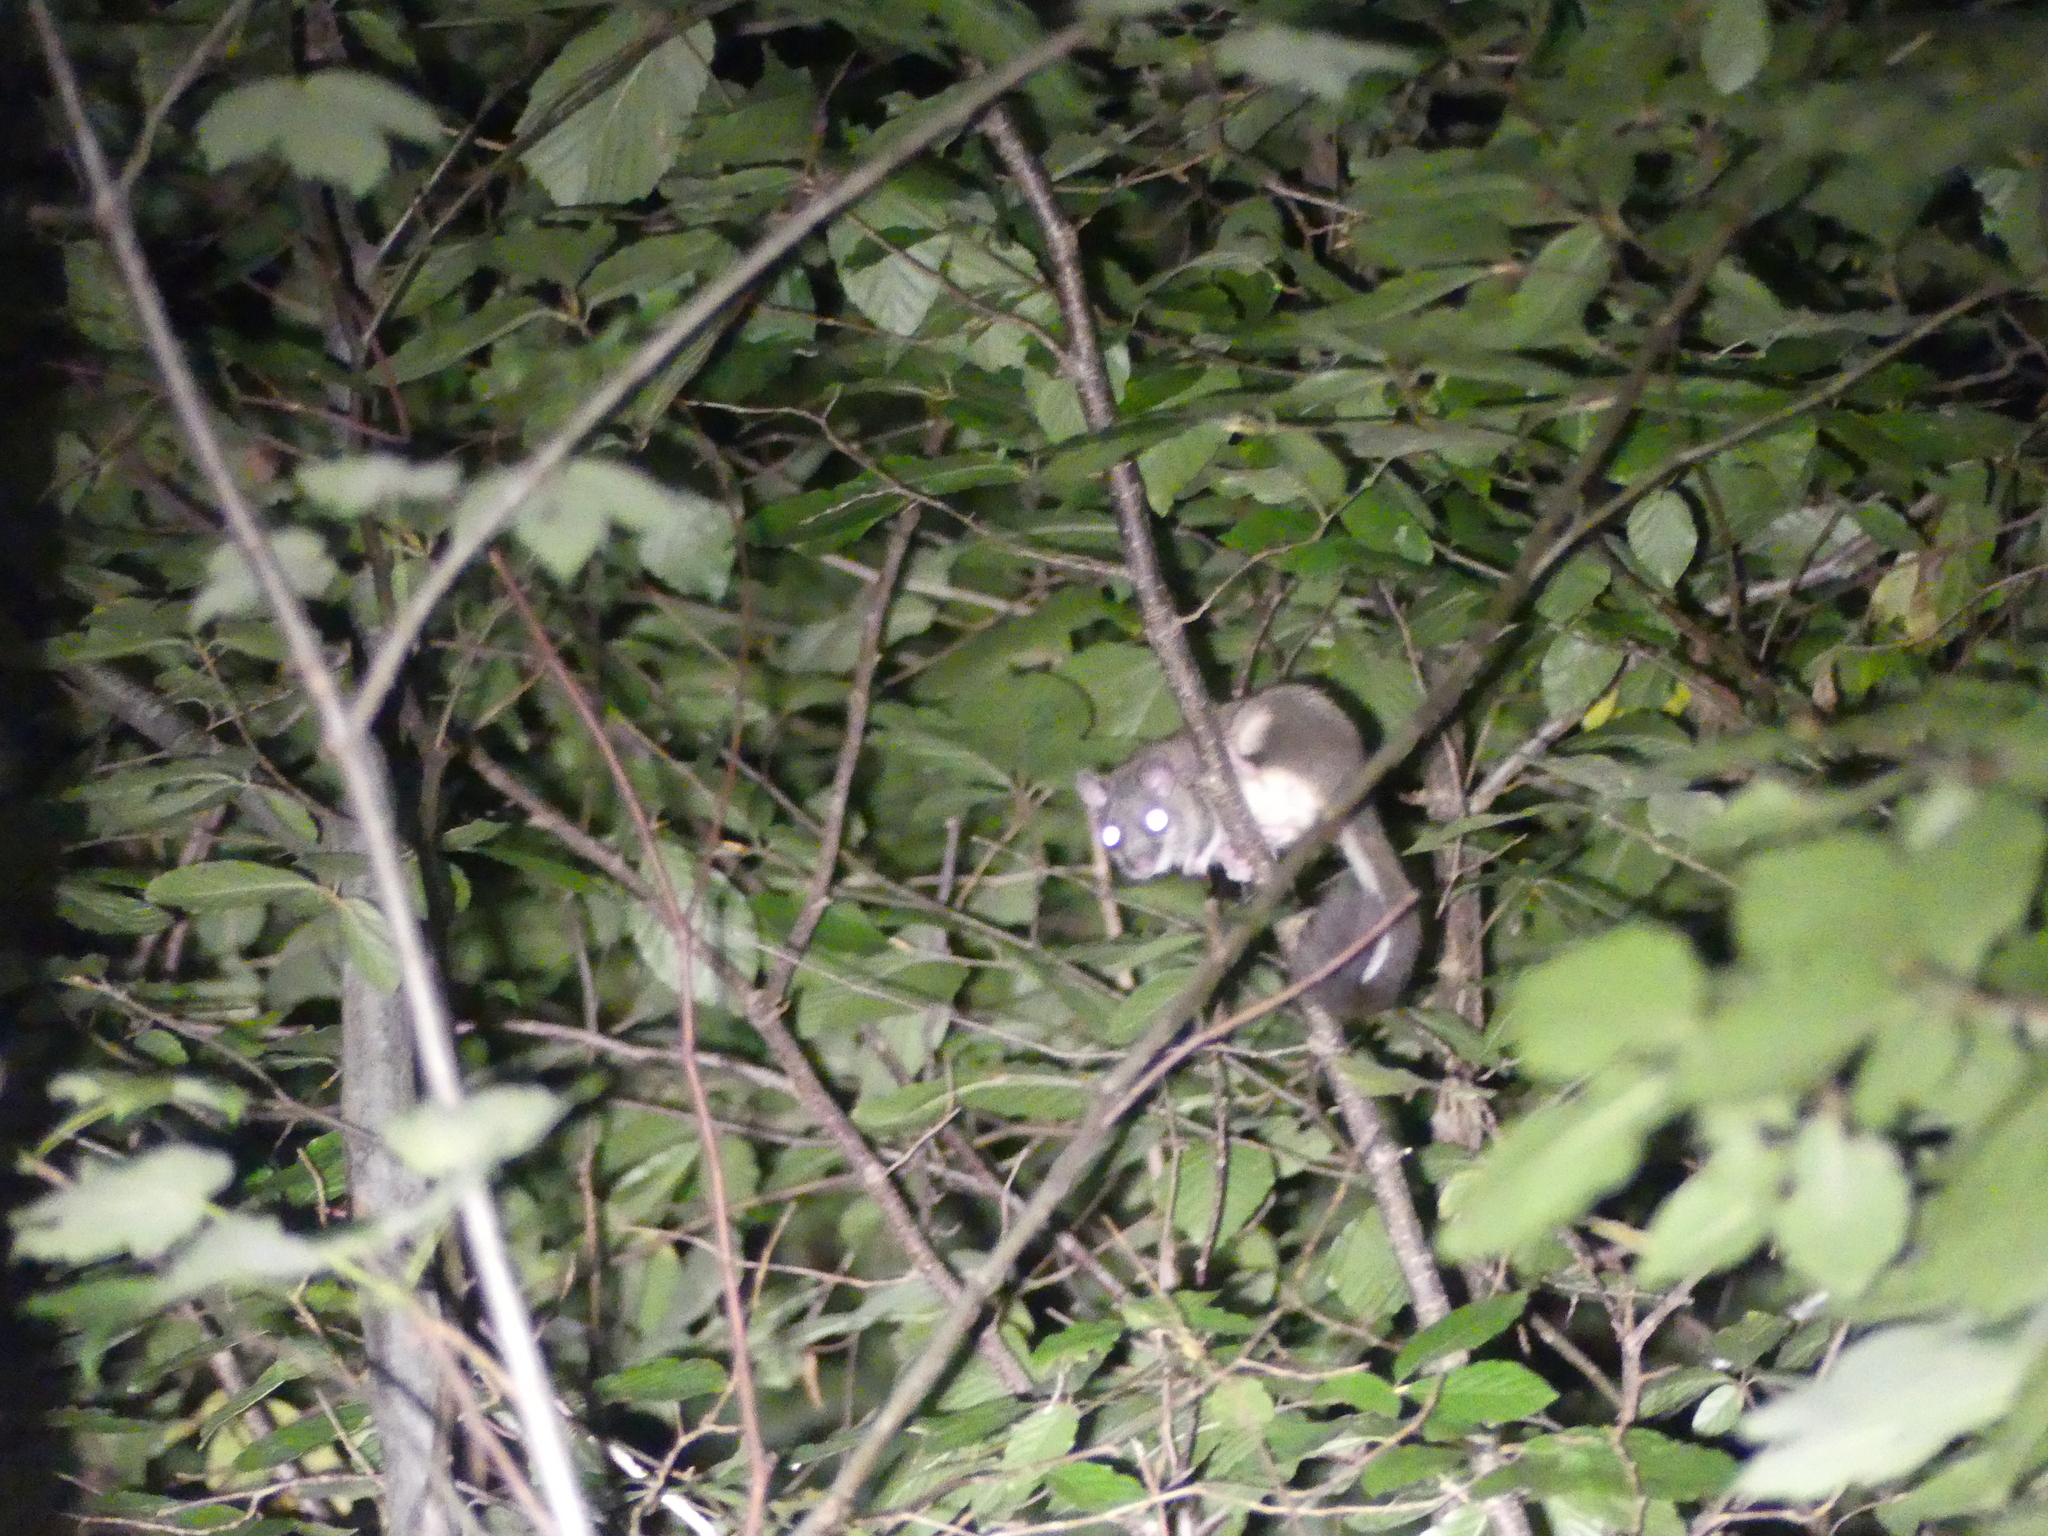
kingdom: Animalia
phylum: Chordata
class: Mammalia
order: Rodentia
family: Gliridae
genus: Glis
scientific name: Glis glis
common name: Fat dormouse
